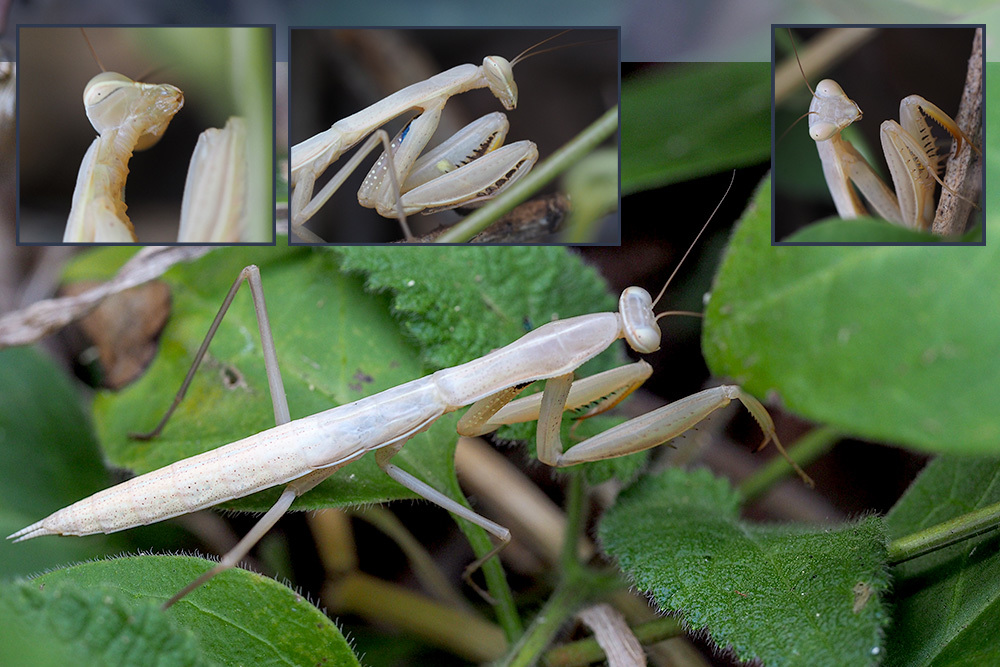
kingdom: Animalia
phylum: Arthropoda
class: Insecta
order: Mantodea
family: Mantidae
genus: Mantis
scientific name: Mantis religiosa
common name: Praying mantis
